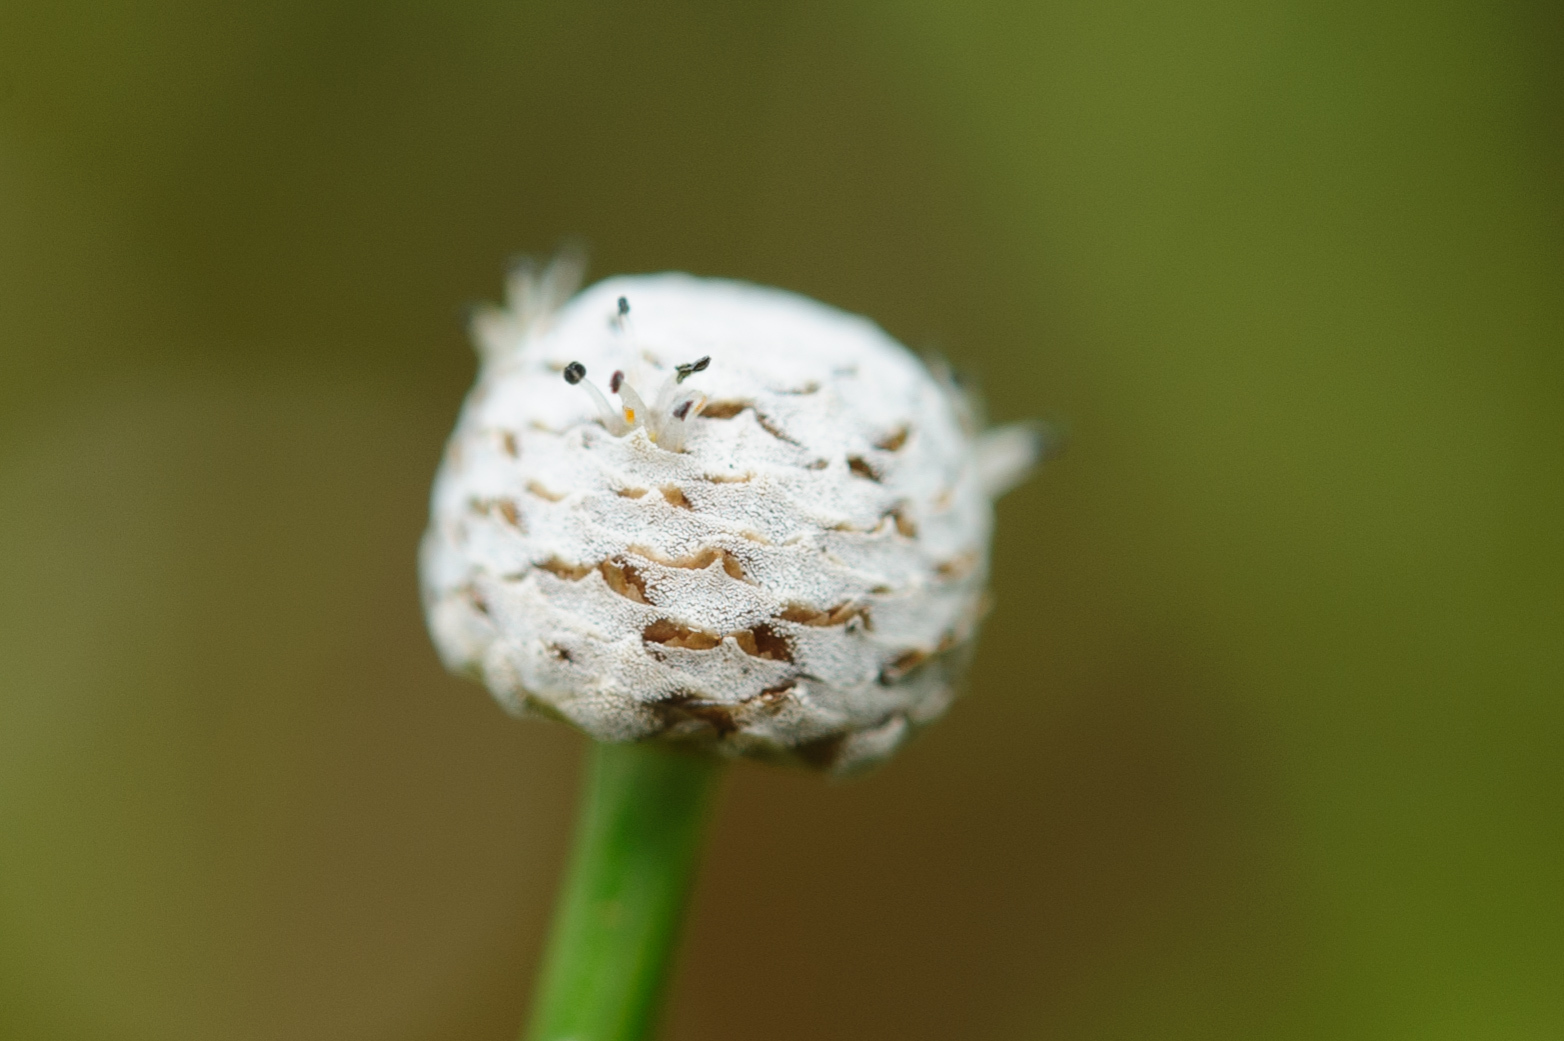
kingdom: Plantae
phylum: Tracheophyta
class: Liliopsida
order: Poales
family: Eriocaulaceae
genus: Eriocaulon
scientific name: Eriocaulon cinereum
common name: Ashy pipewort
